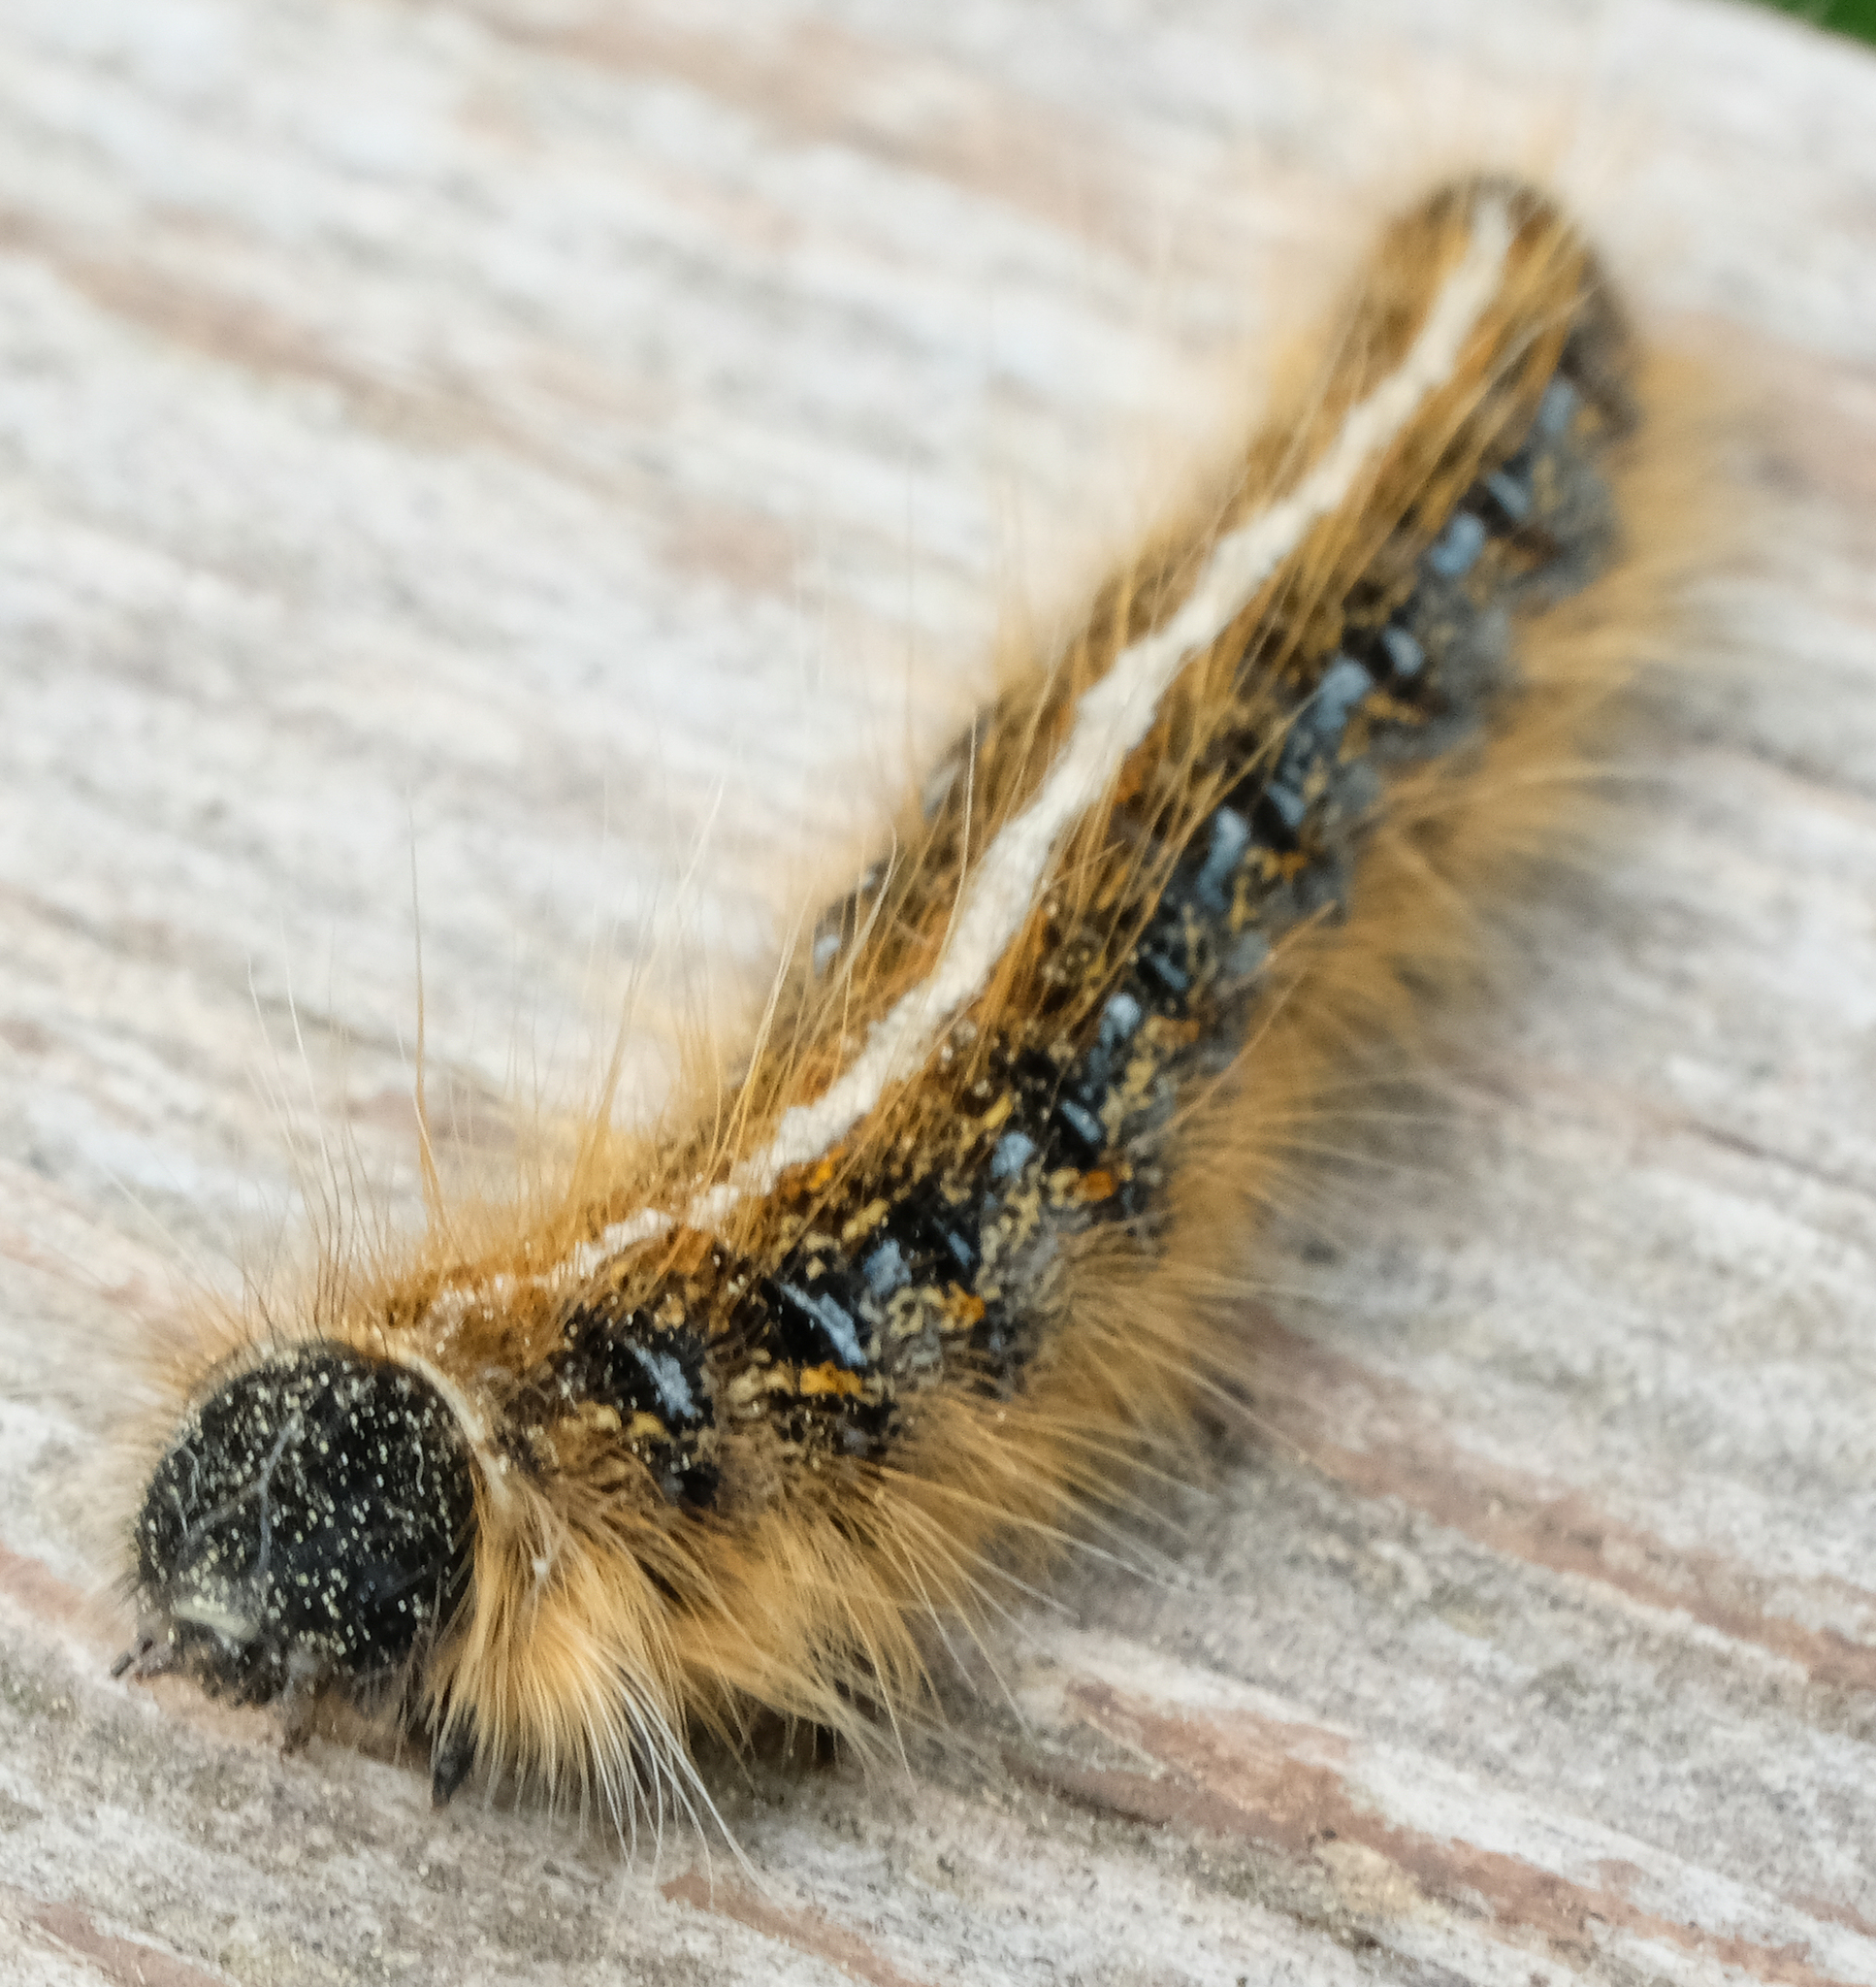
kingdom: Animalia
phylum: Arthropoda
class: Insecta
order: Lepidoptera
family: Lasiocampidae
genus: Malacosoma
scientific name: Malacosoma americana
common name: Eastern tent caterpillar moth
